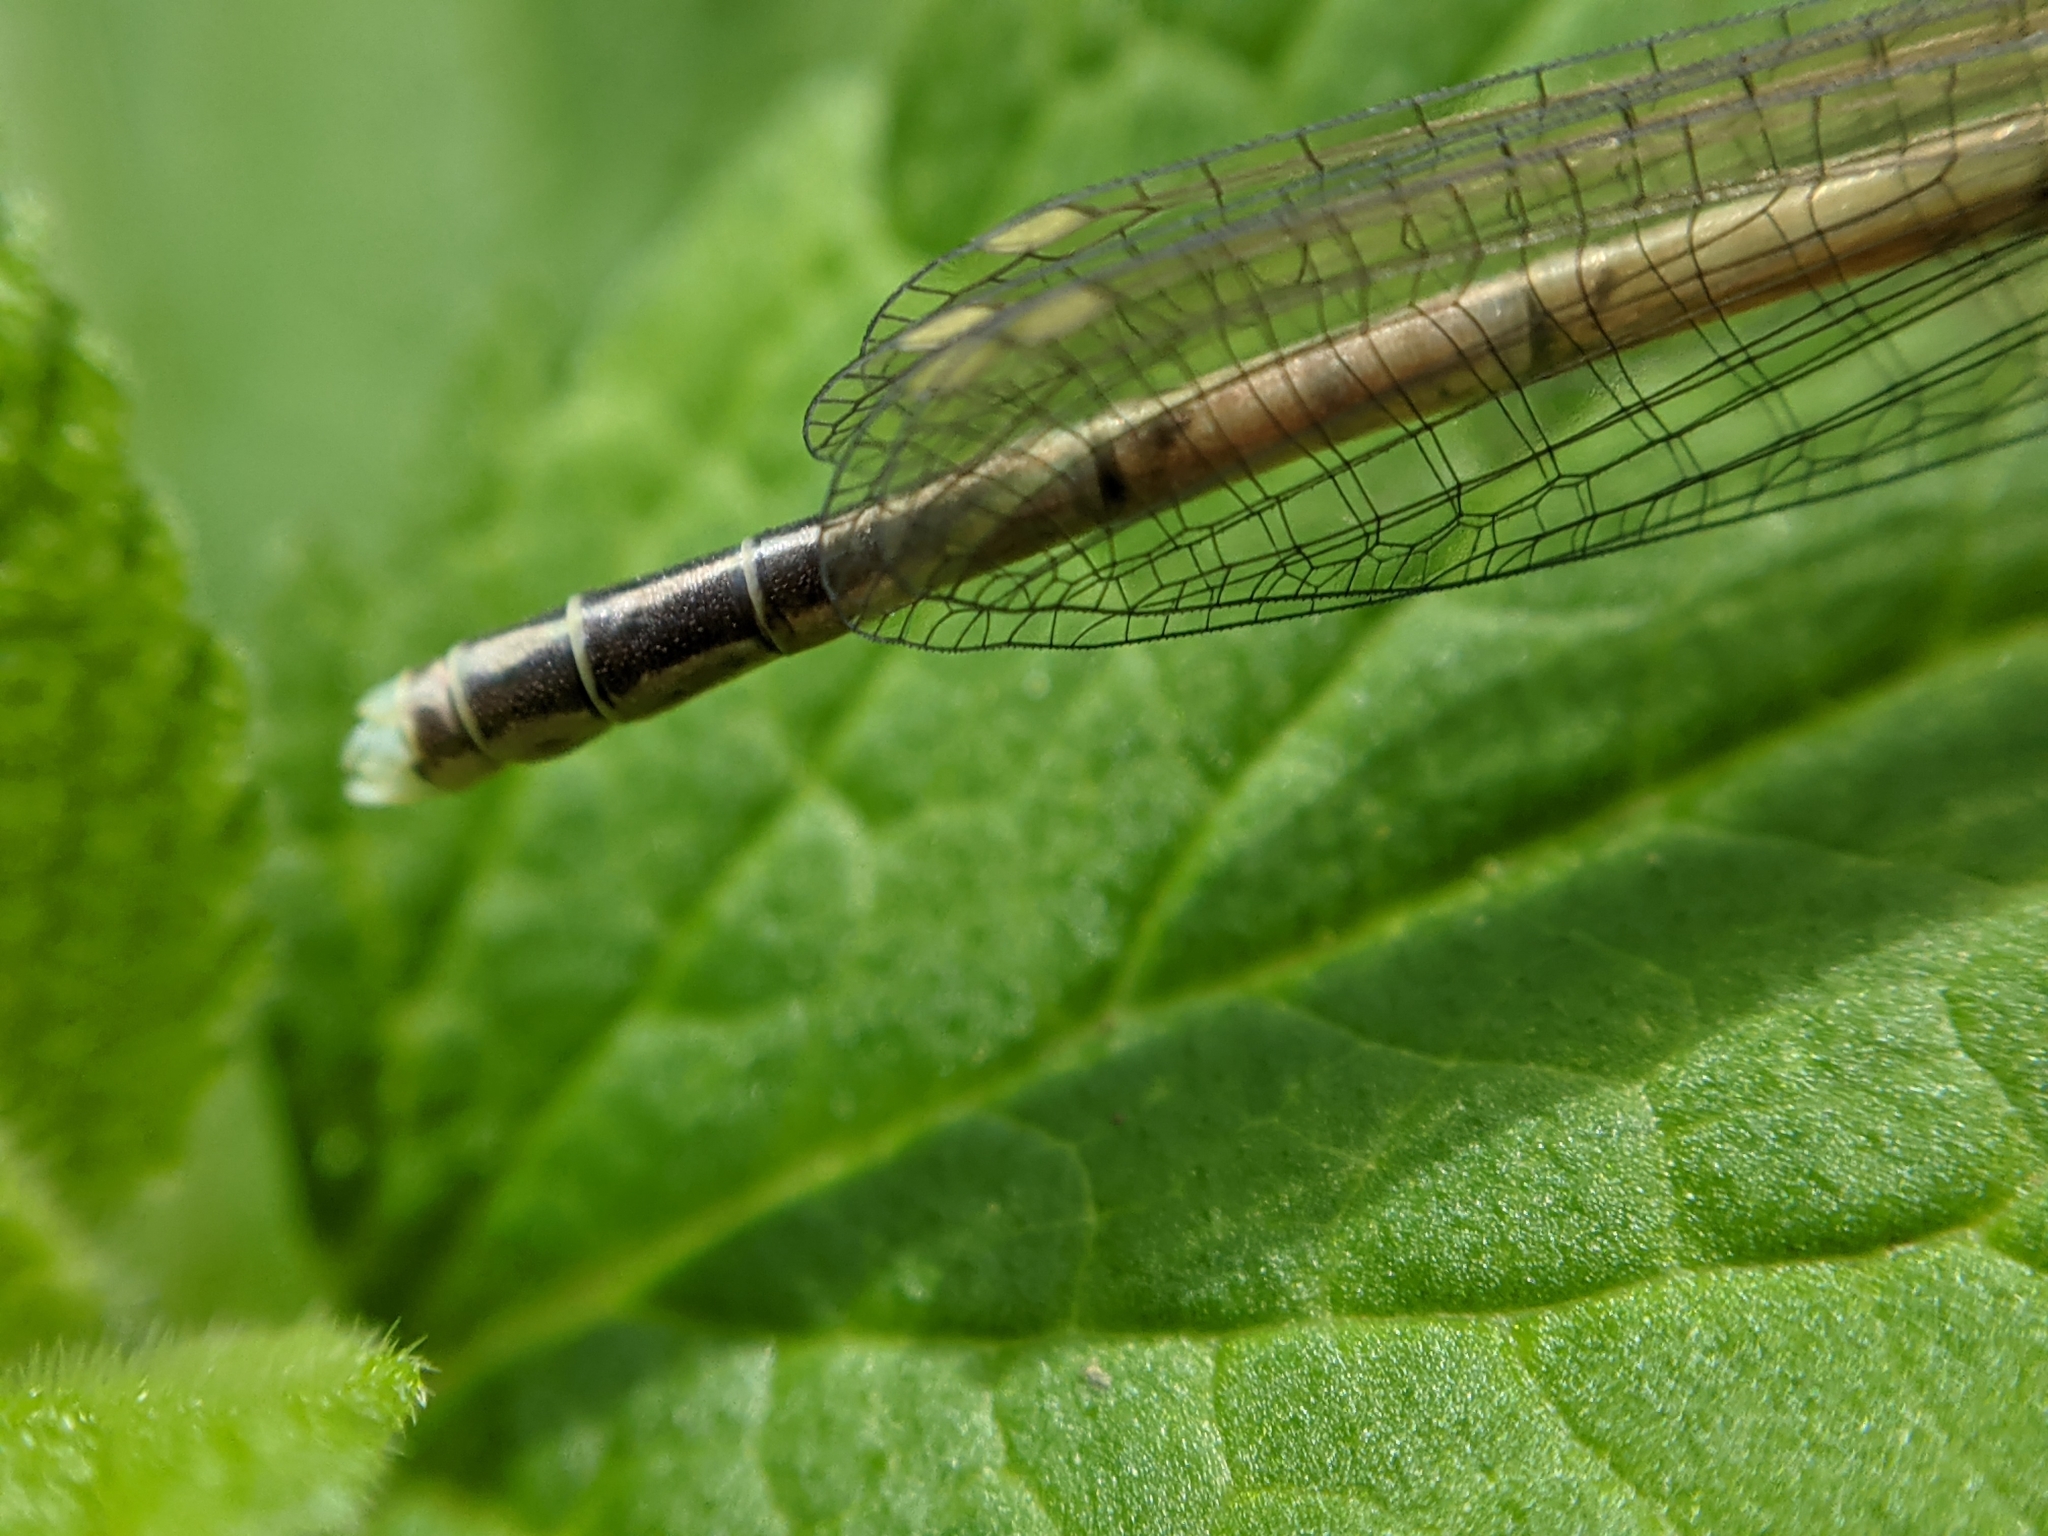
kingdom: Animalia
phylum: Arthropoda
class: Insecta
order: Odonata
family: Platycnemididae
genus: Platycnemis
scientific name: Platycnemis pennipes
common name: White-legged damselfly
